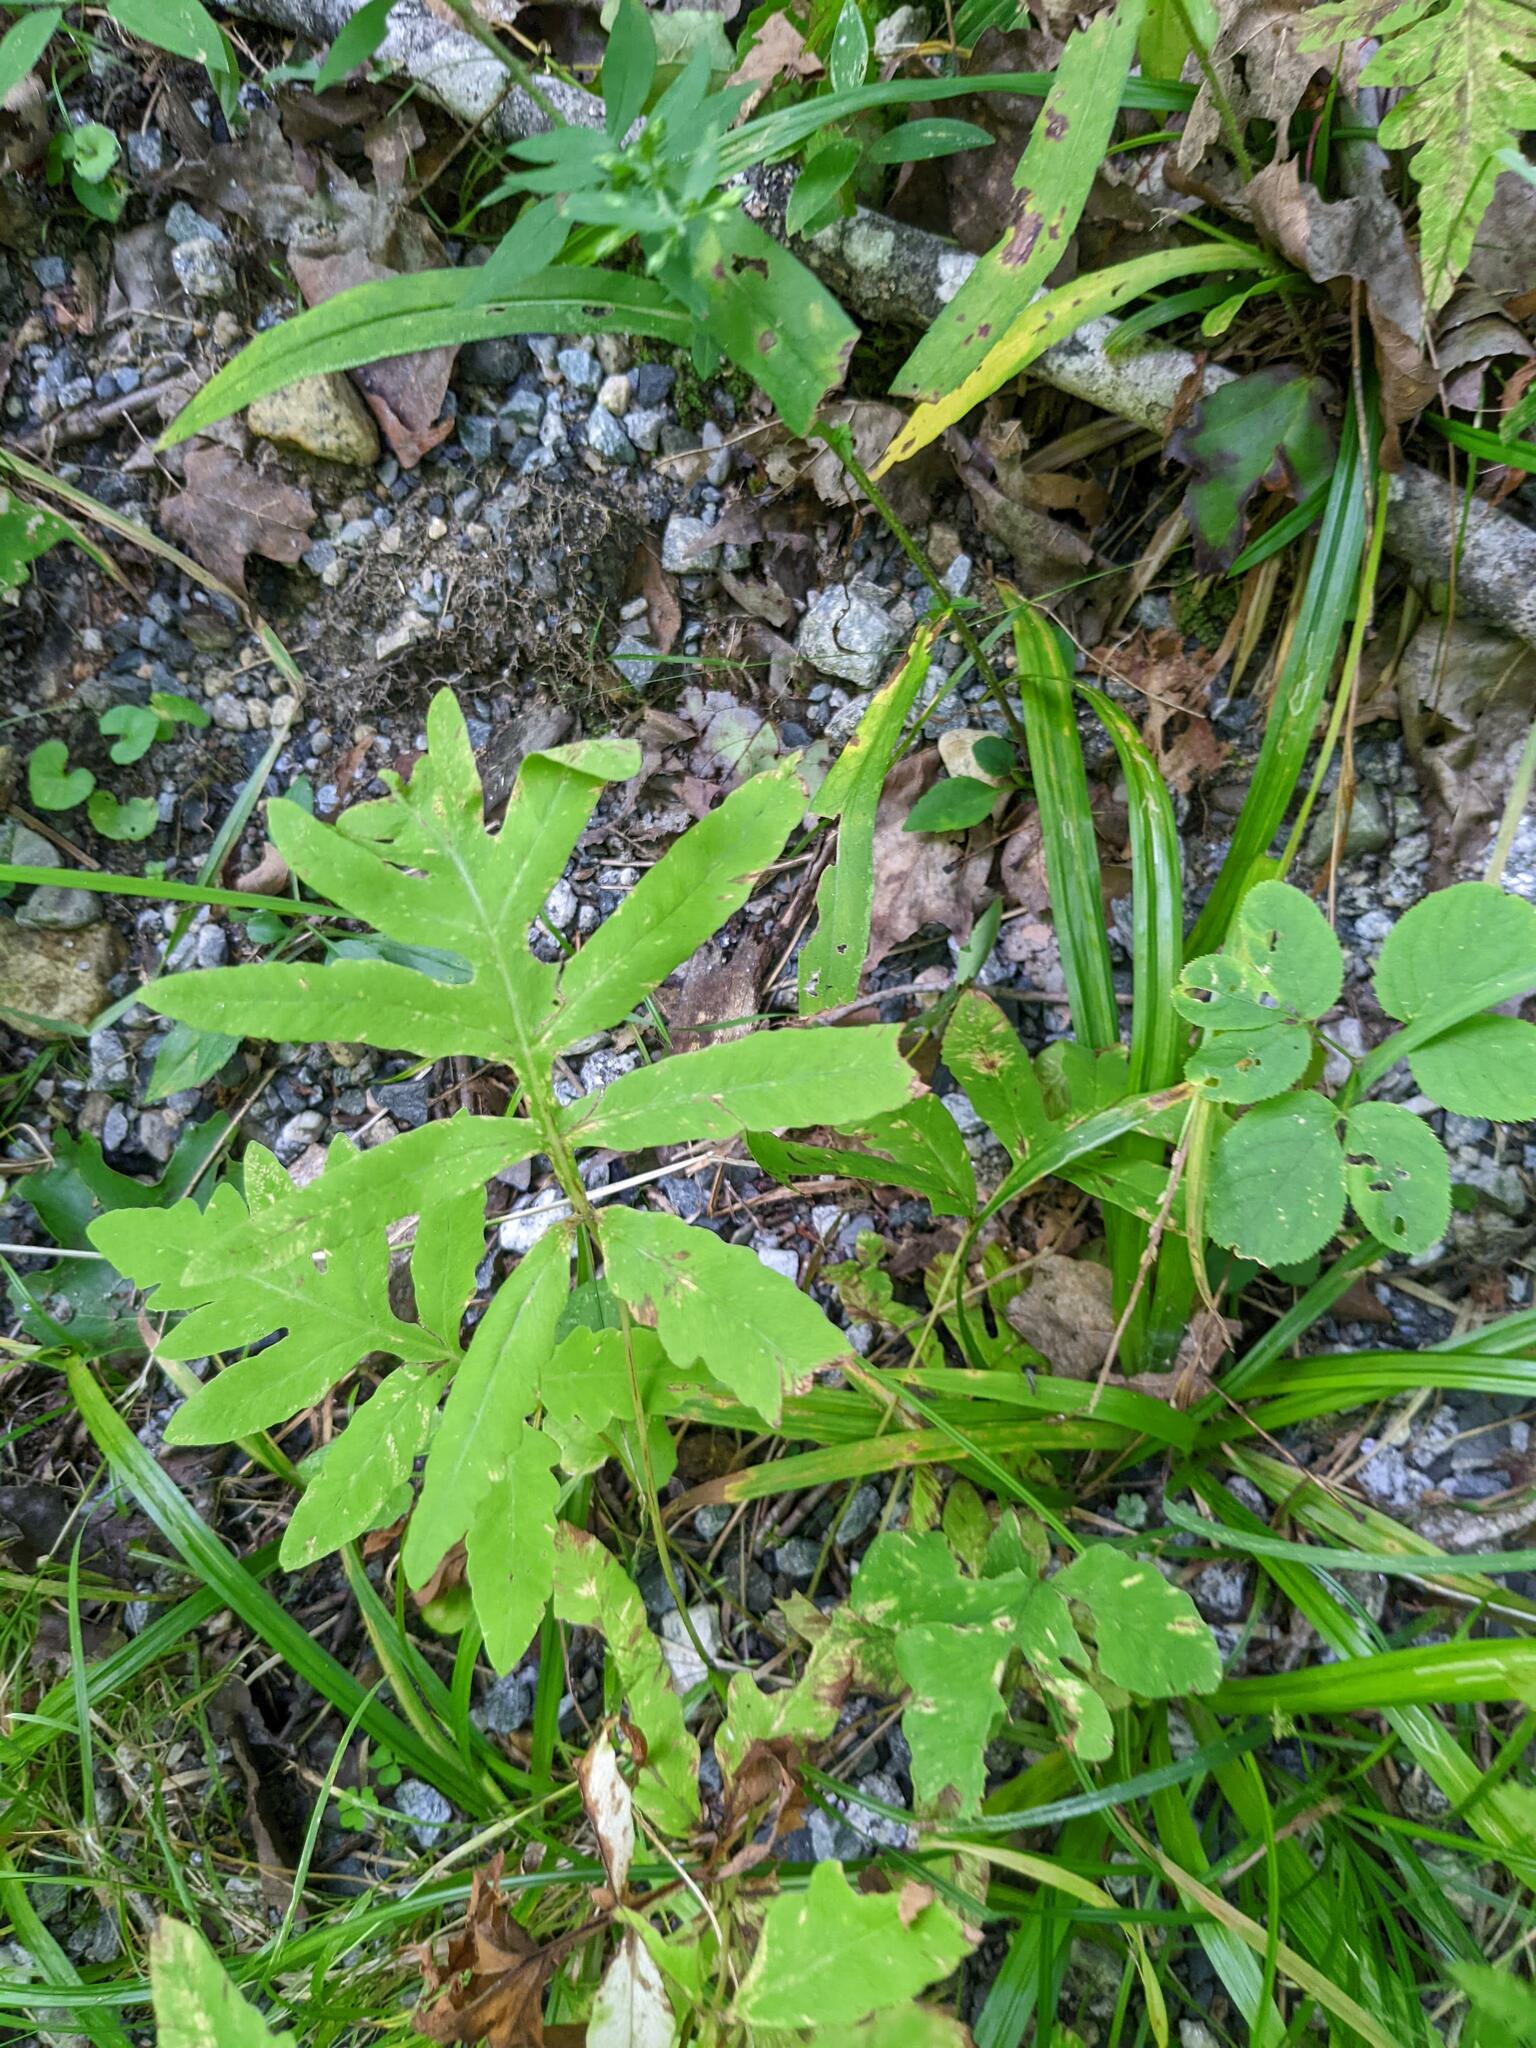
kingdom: Plantae
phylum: Tracheophyta
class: Polypodiopsida
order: Polypodiales
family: Onocleaceae
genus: Onoclea
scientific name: Onoclea sensibilis
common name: Sensitive fern
